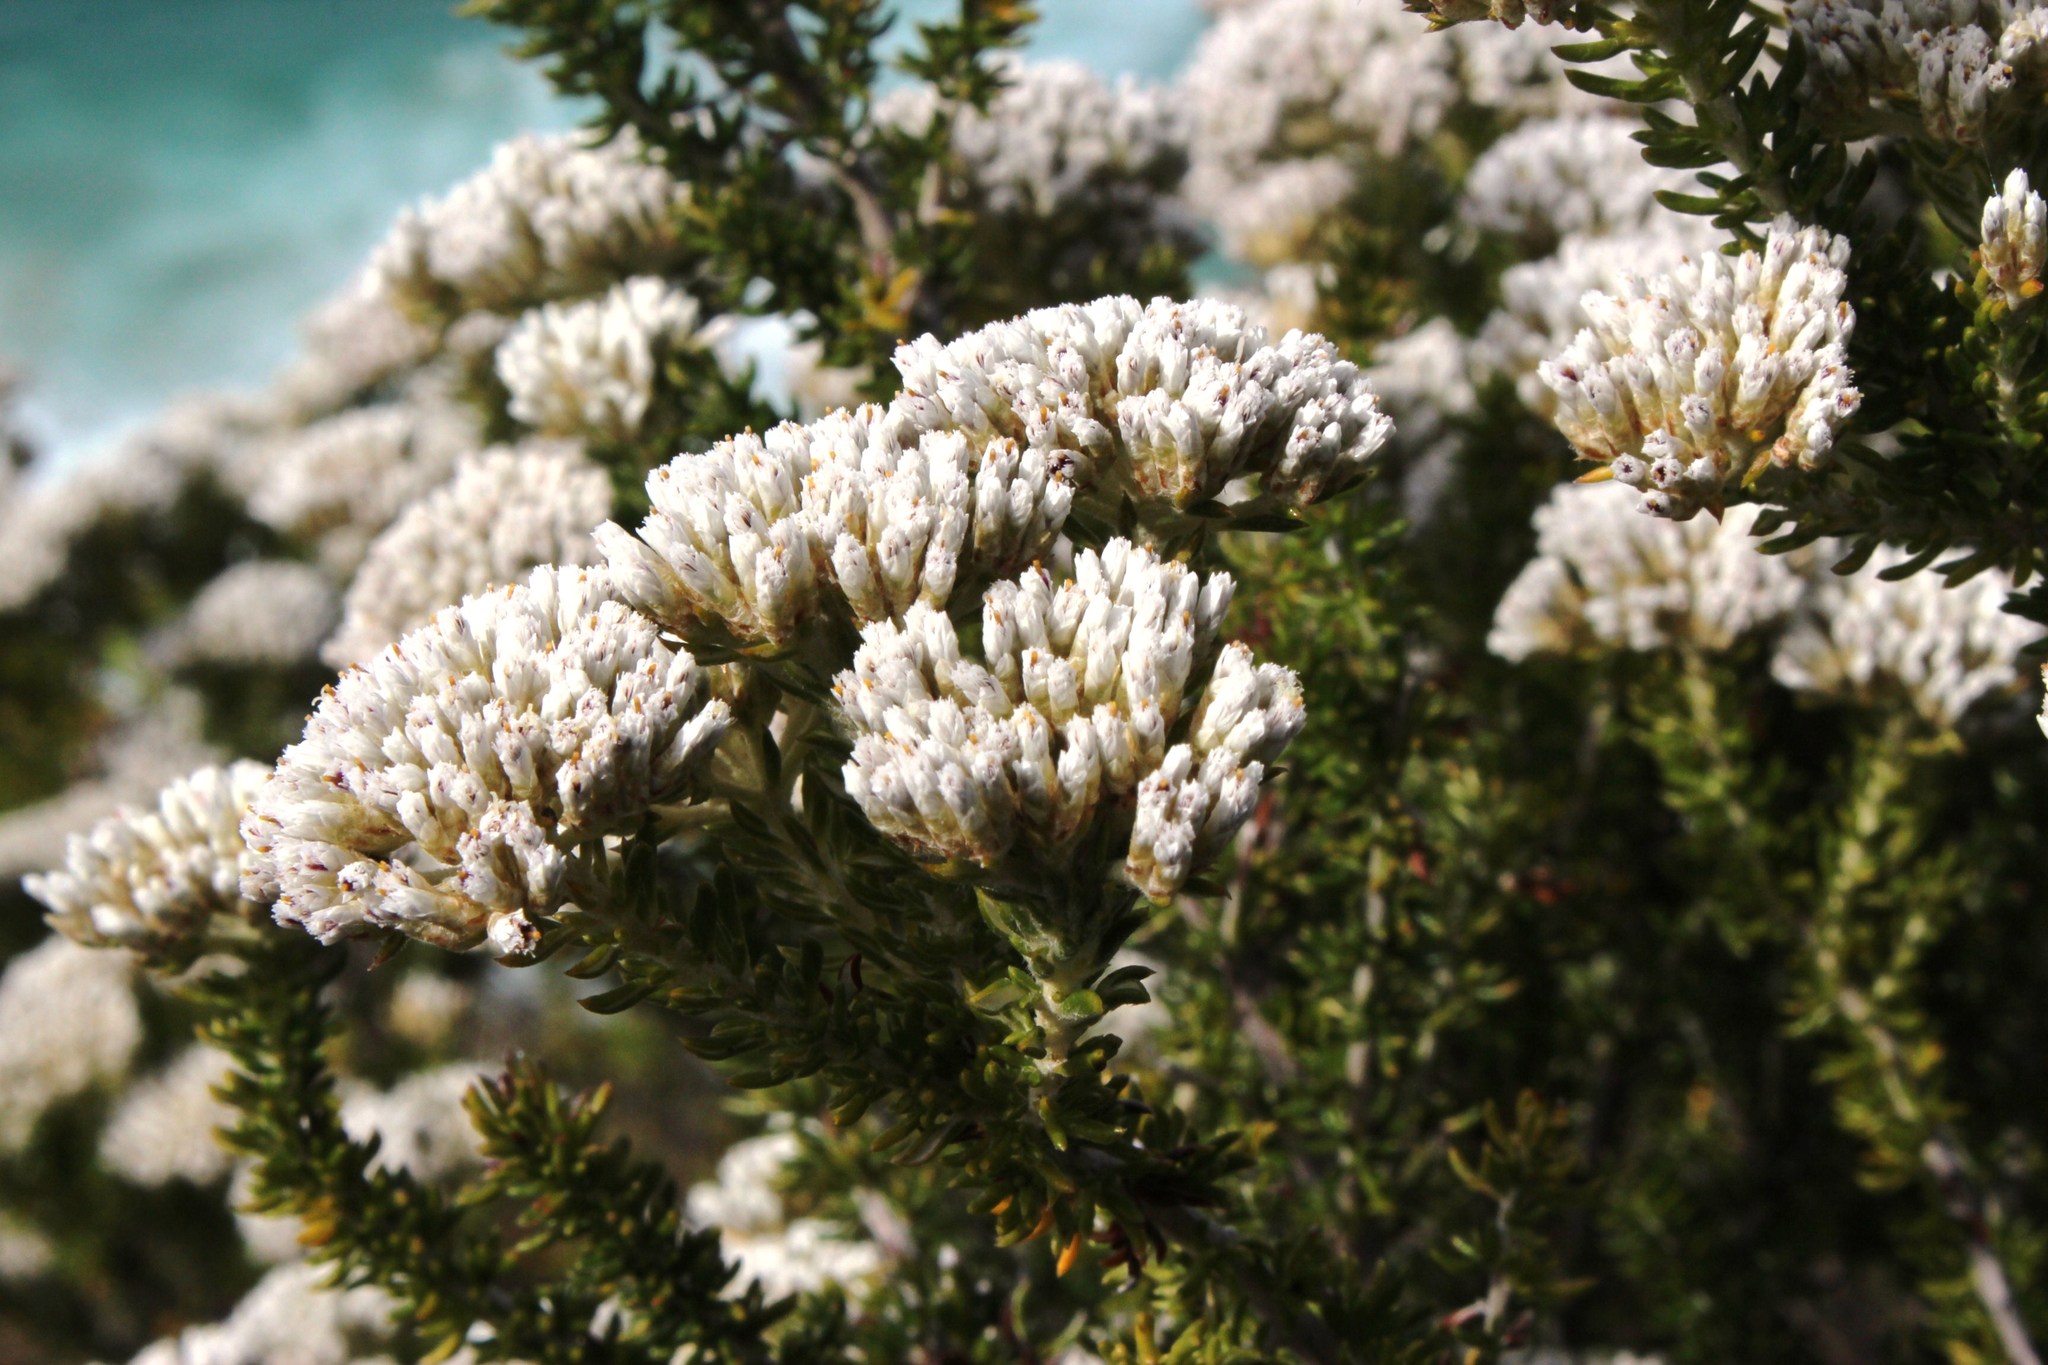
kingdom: Plantae
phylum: Tracheophyta
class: Magnoliopsida
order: Asterales
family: Asteraceae
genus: Metalasia
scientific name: Metalasia densa
